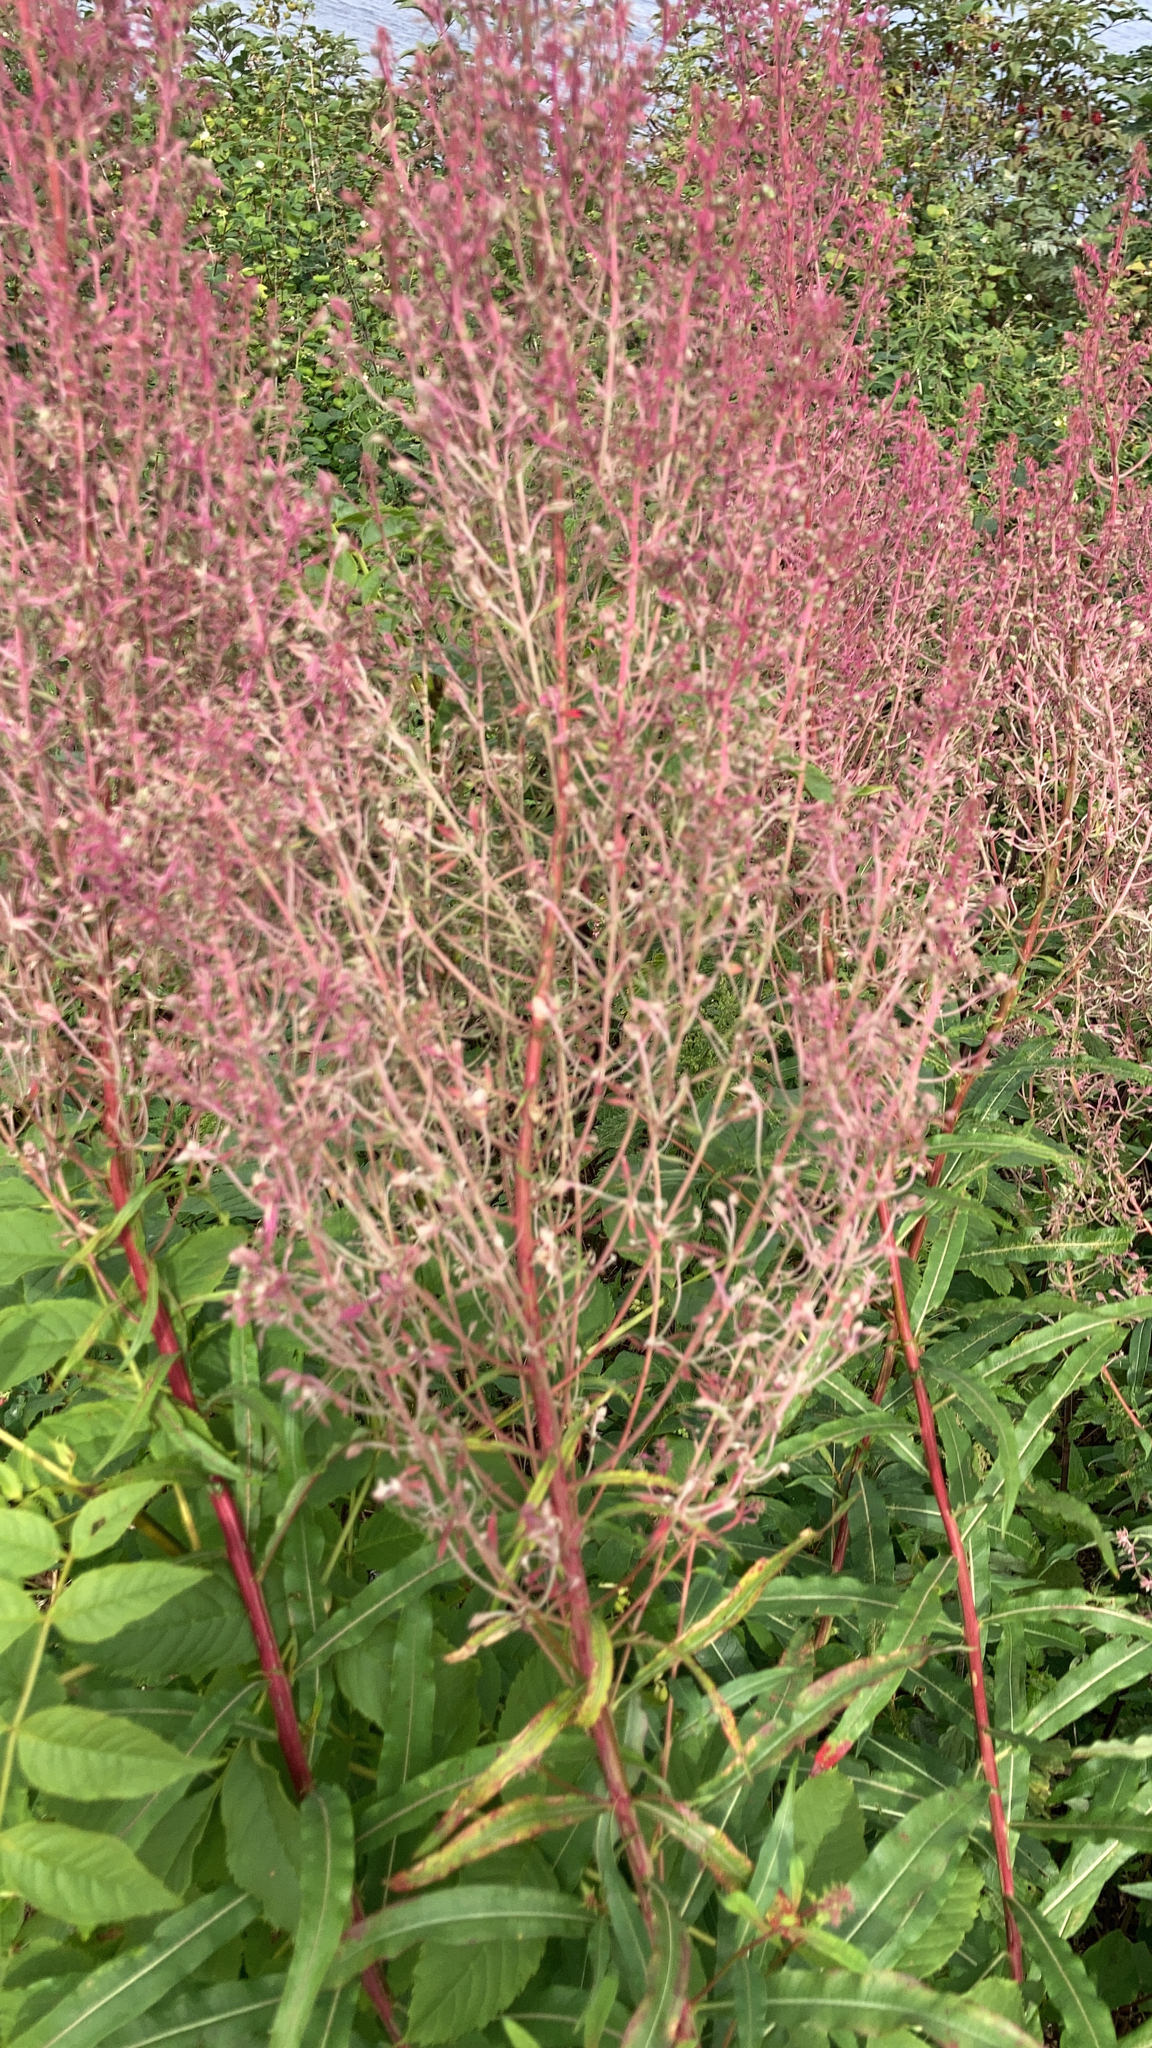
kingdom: Plantae
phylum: Tracheophyta
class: Magnoliopsida
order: Myrtales
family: Onagraceae
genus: Chamaenerion
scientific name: Chamaenerion angustifolium
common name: Fireweed
